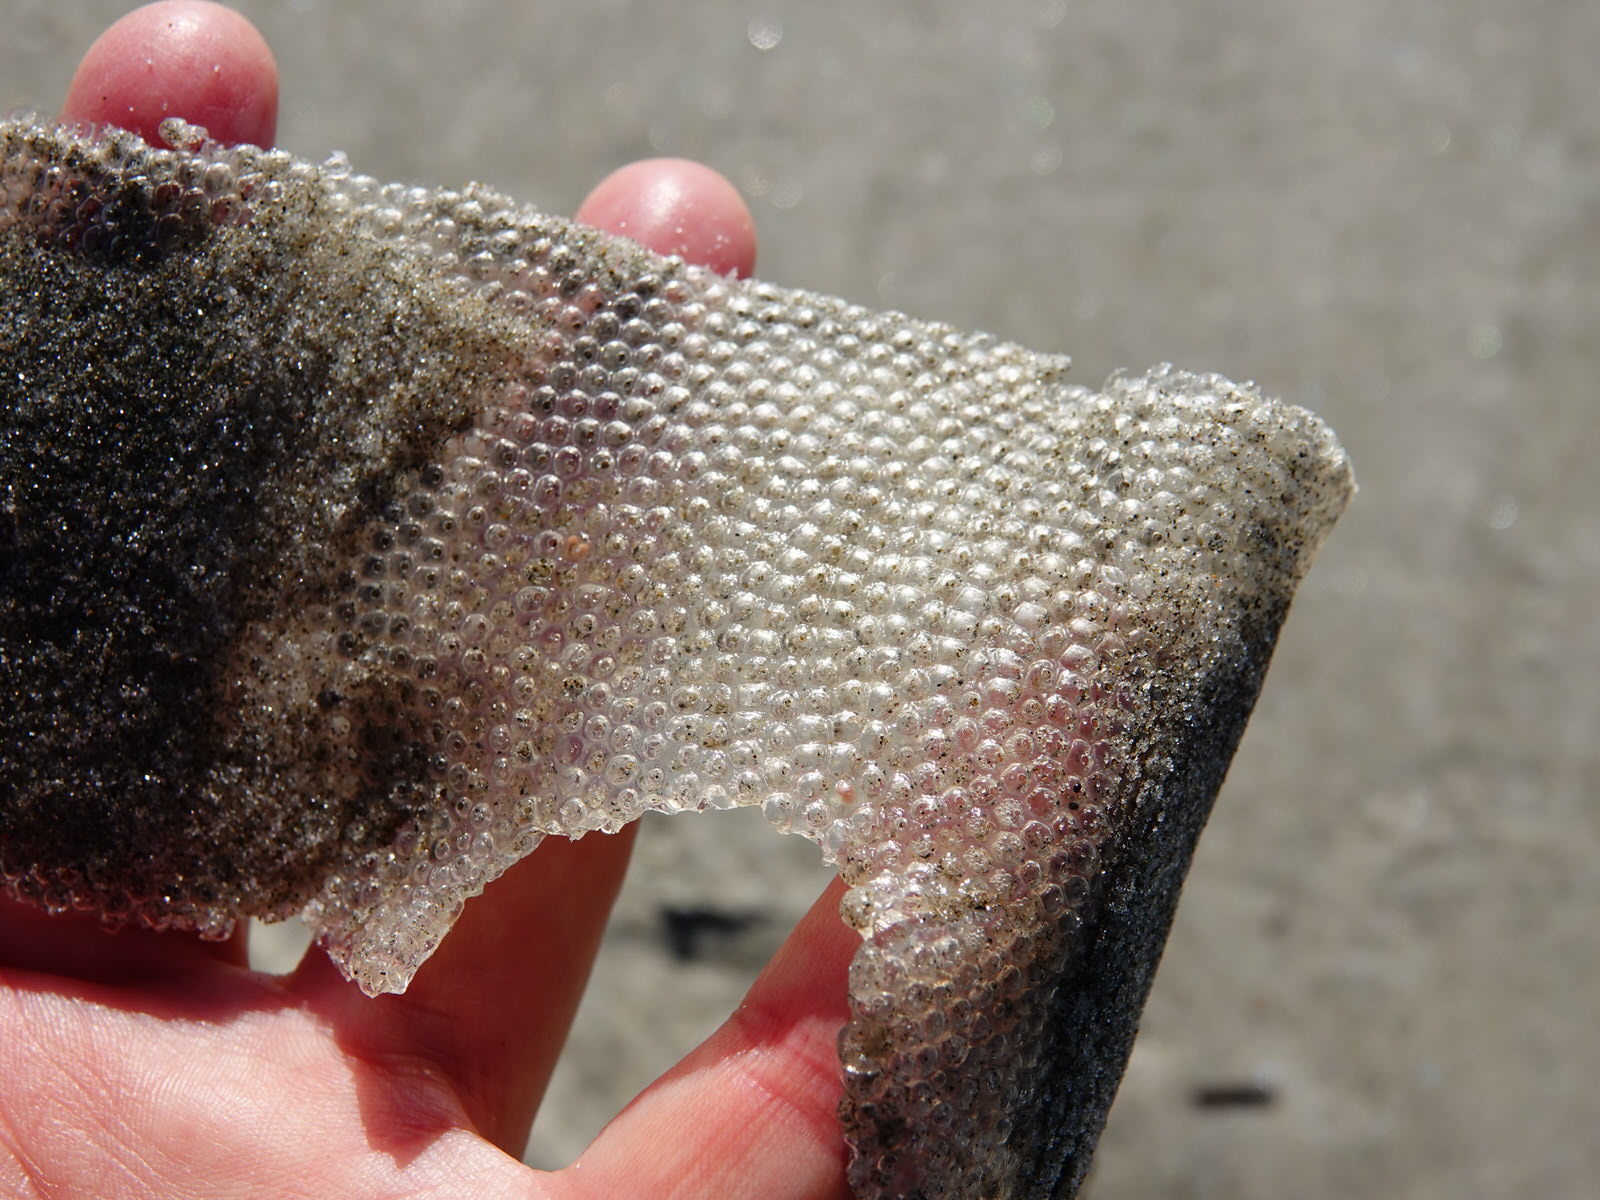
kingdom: Animalia
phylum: Mollusca
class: Gastropoda
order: Littorinimorpha
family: Tonnidae
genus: Tonna
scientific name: Tonna tankervillii
